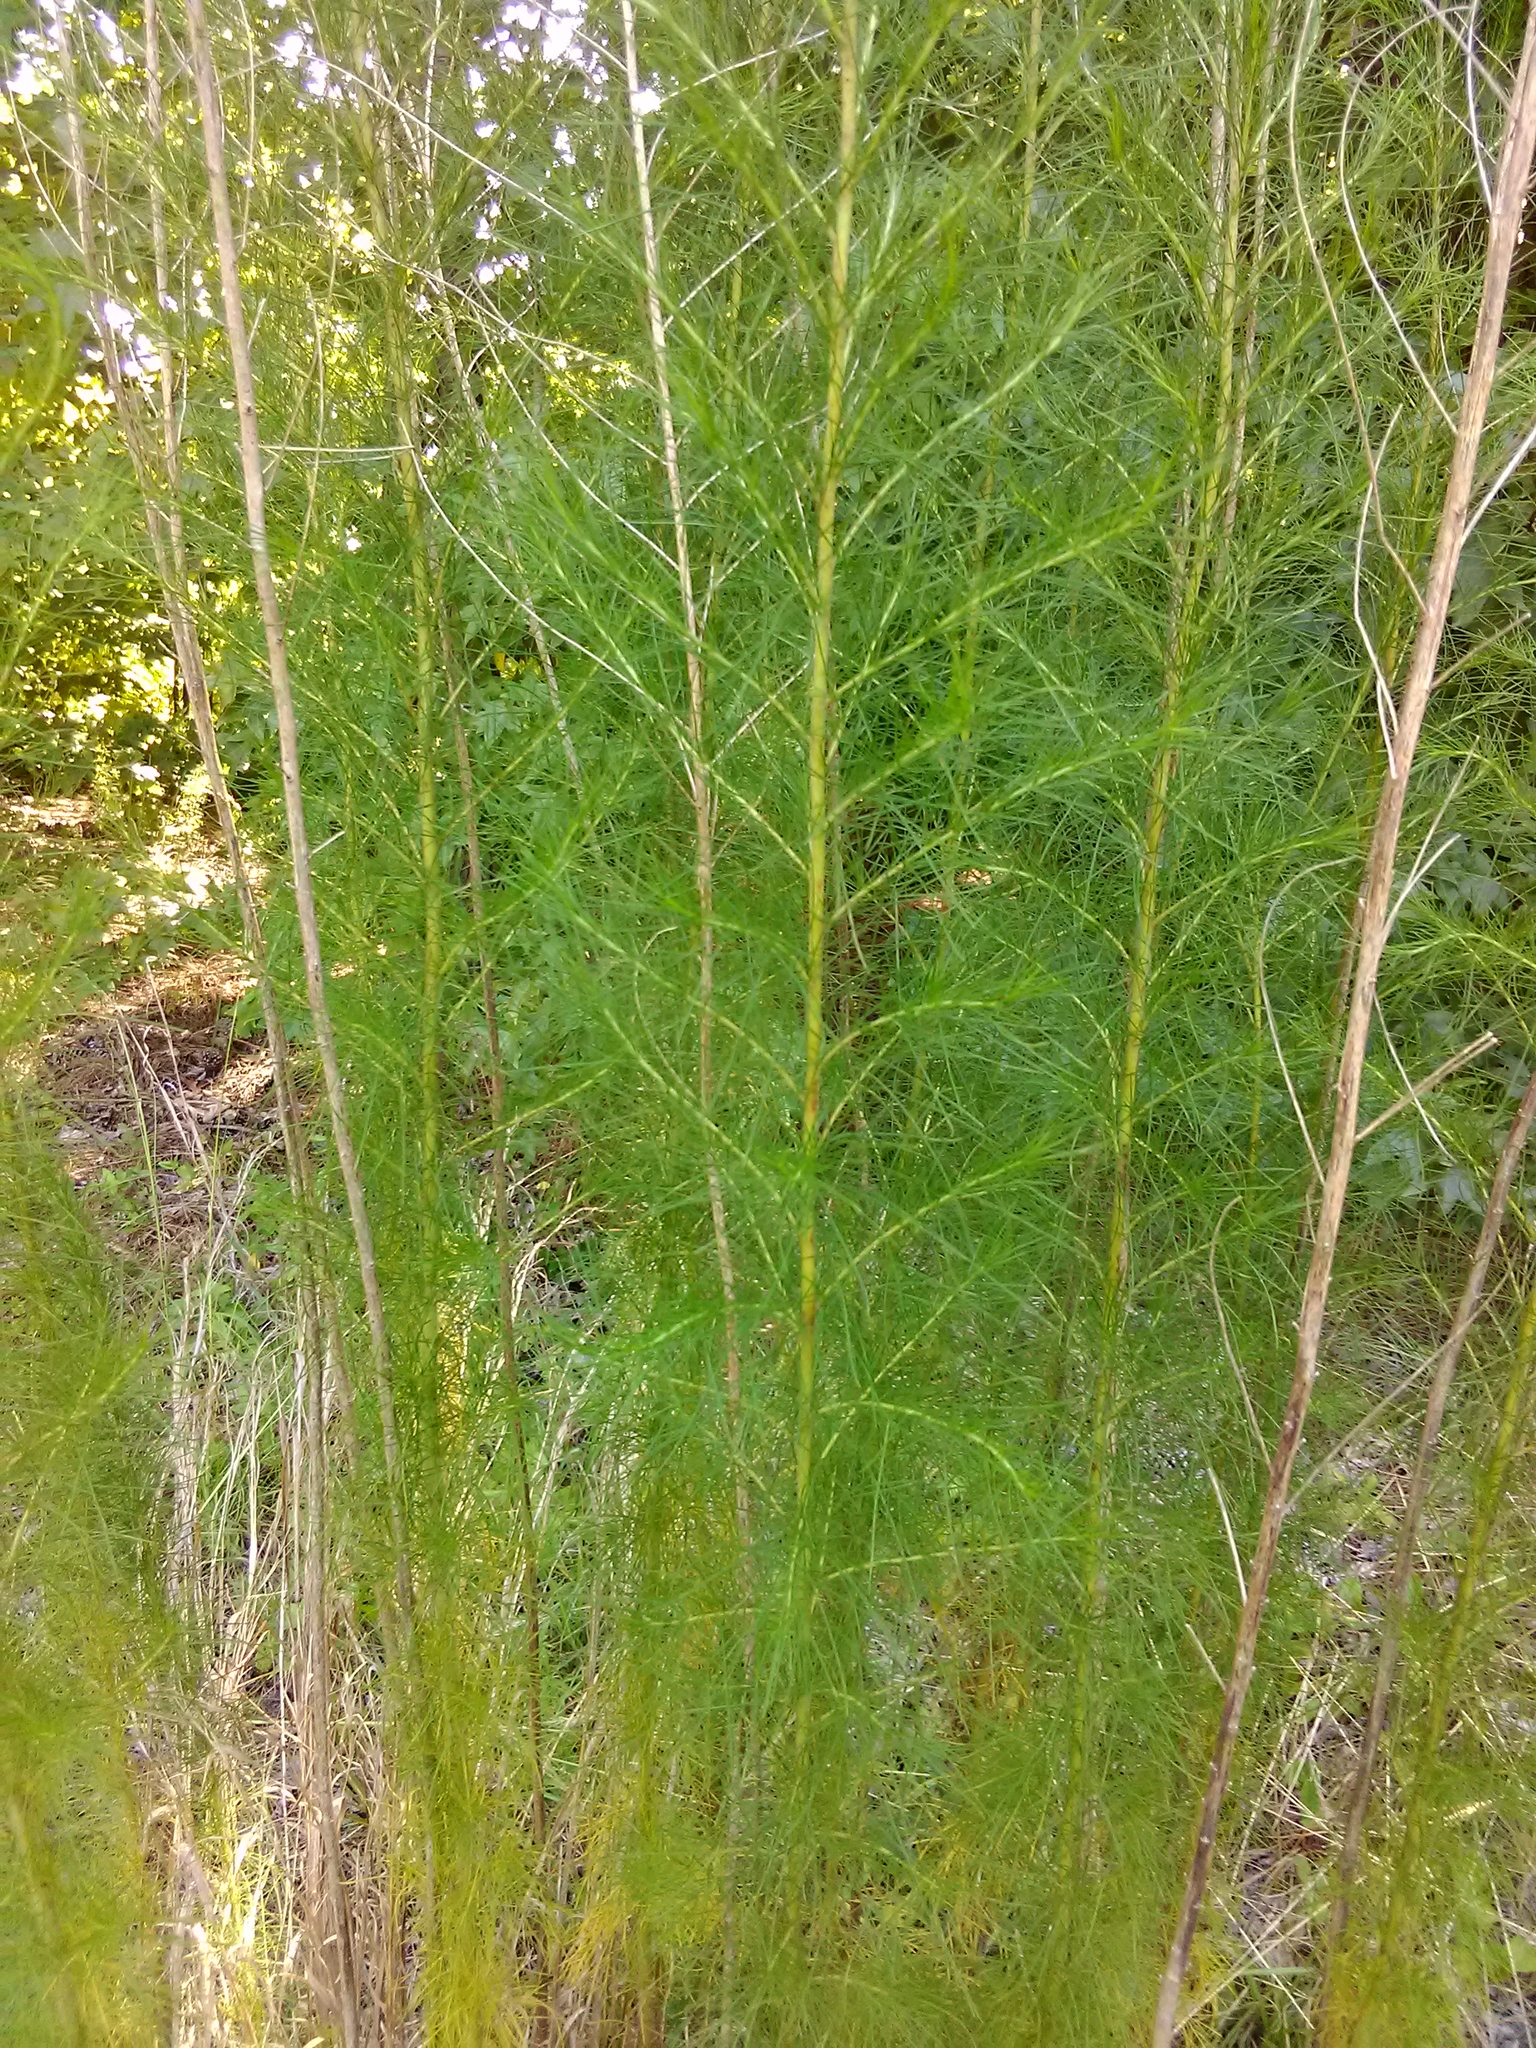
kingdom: Plantae
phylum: Tracheophyta
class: Magnoliopsida
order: Asterales
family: Asteraceae
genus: Eupatorium
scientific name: Eupatorium capillifolium
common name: Dog-fennel
